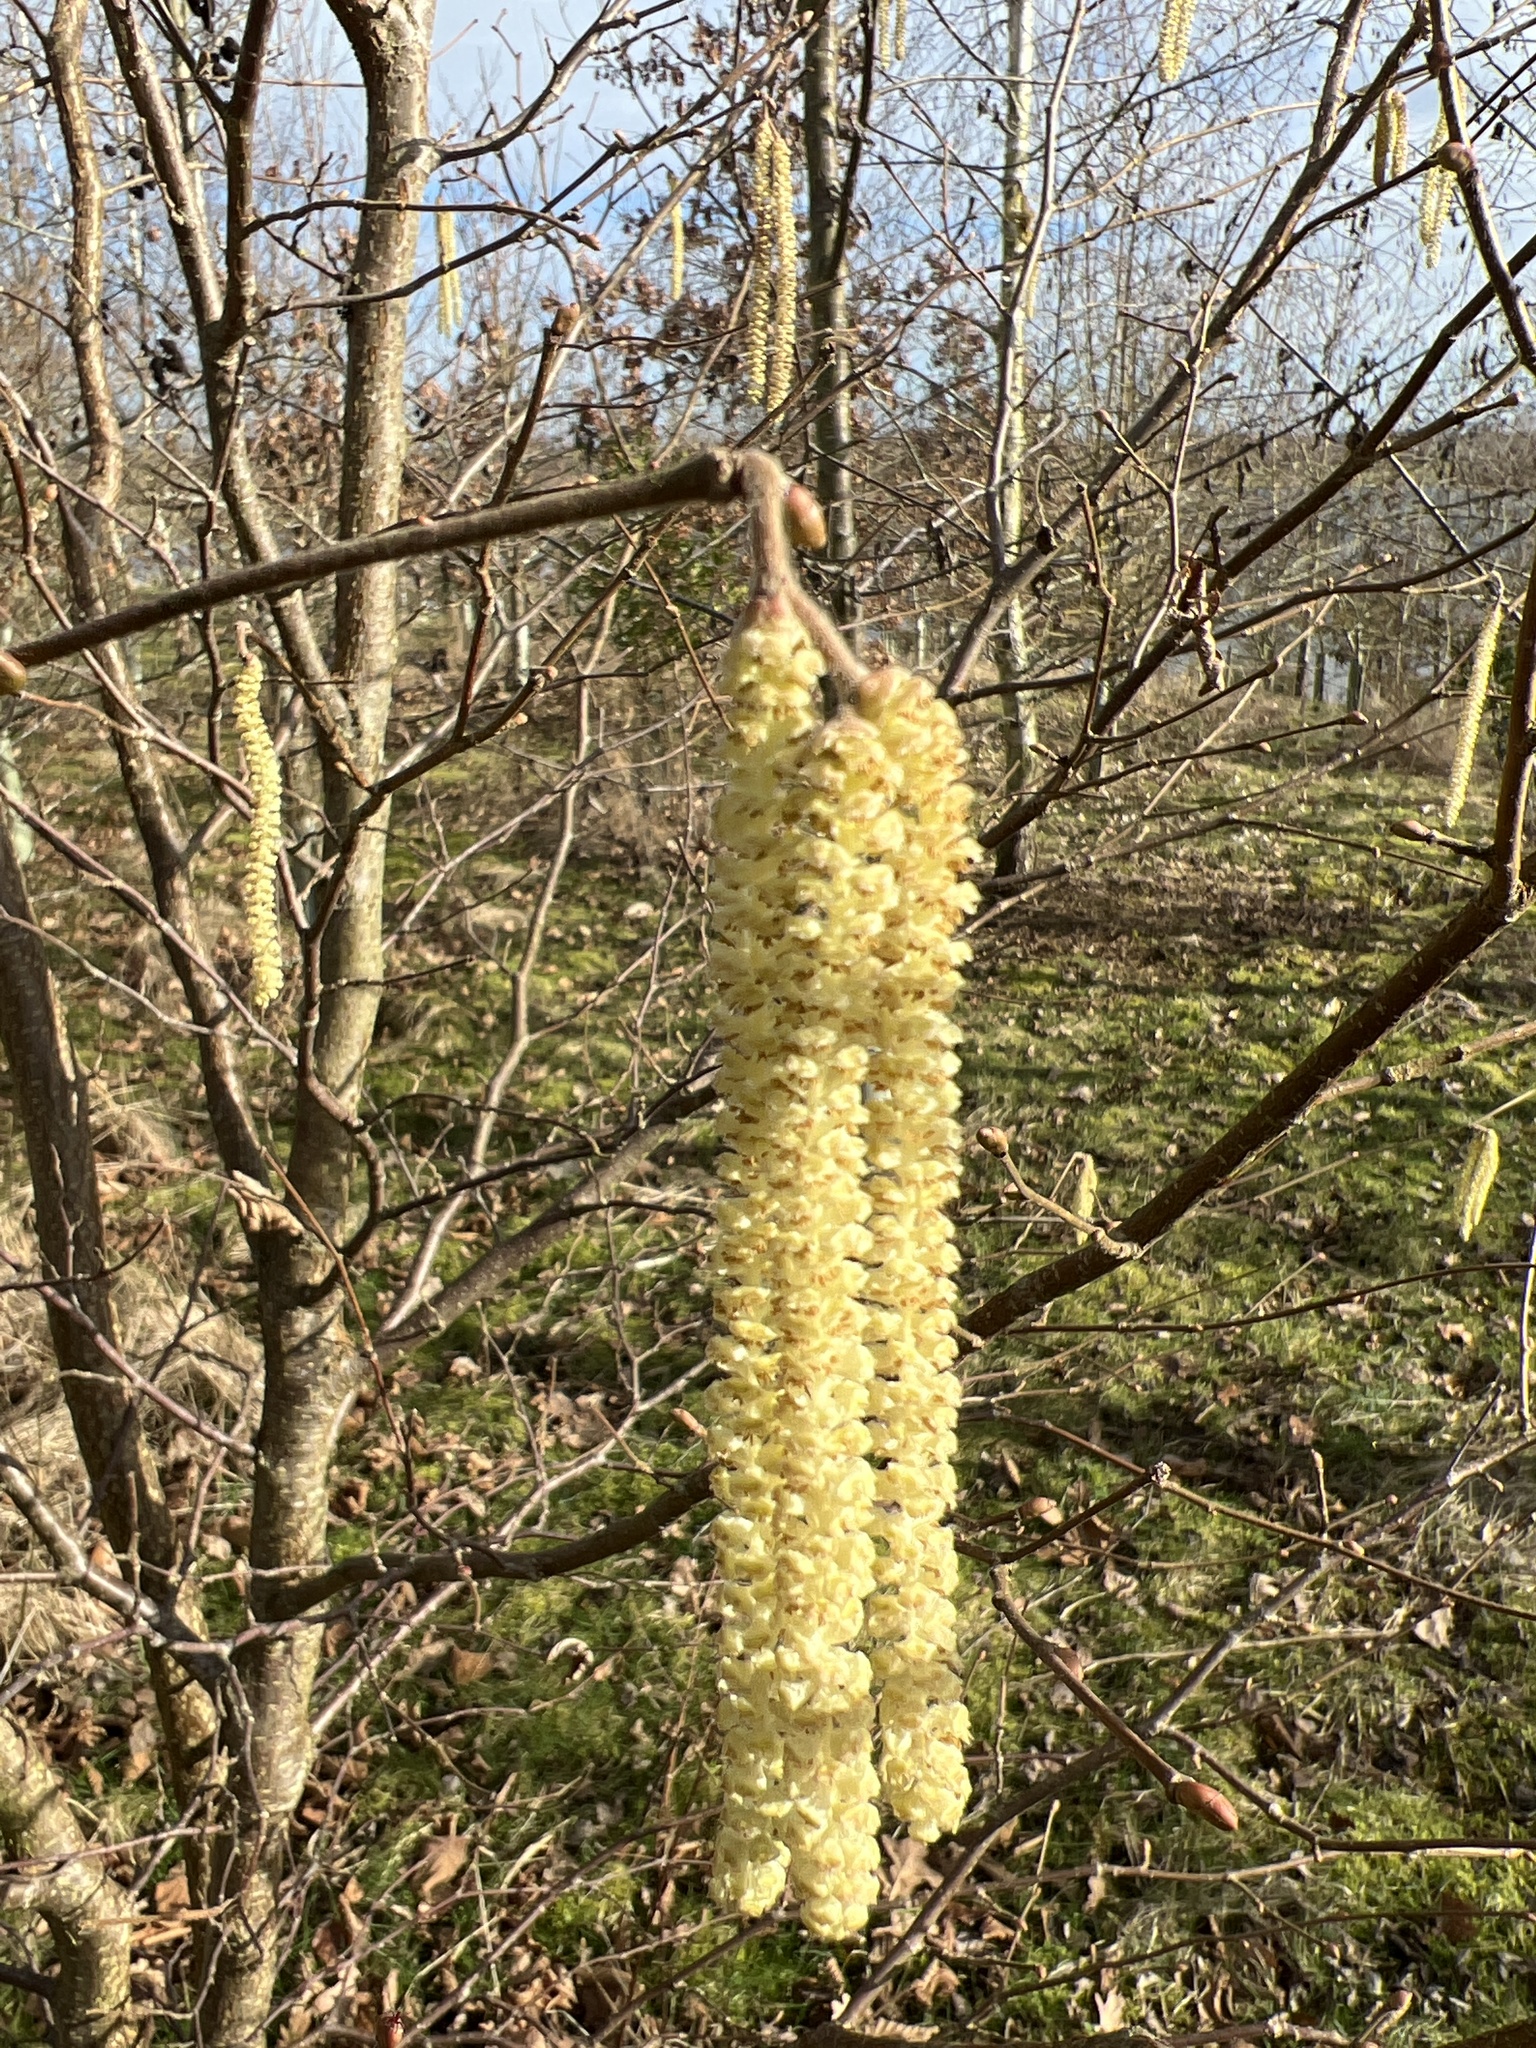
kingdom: Plantae
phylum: Tracheophyta
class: Magnoliopsida
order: Fagales
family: Betulaceae
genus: Corylus
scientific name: Corylus avellana
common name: European hazel
